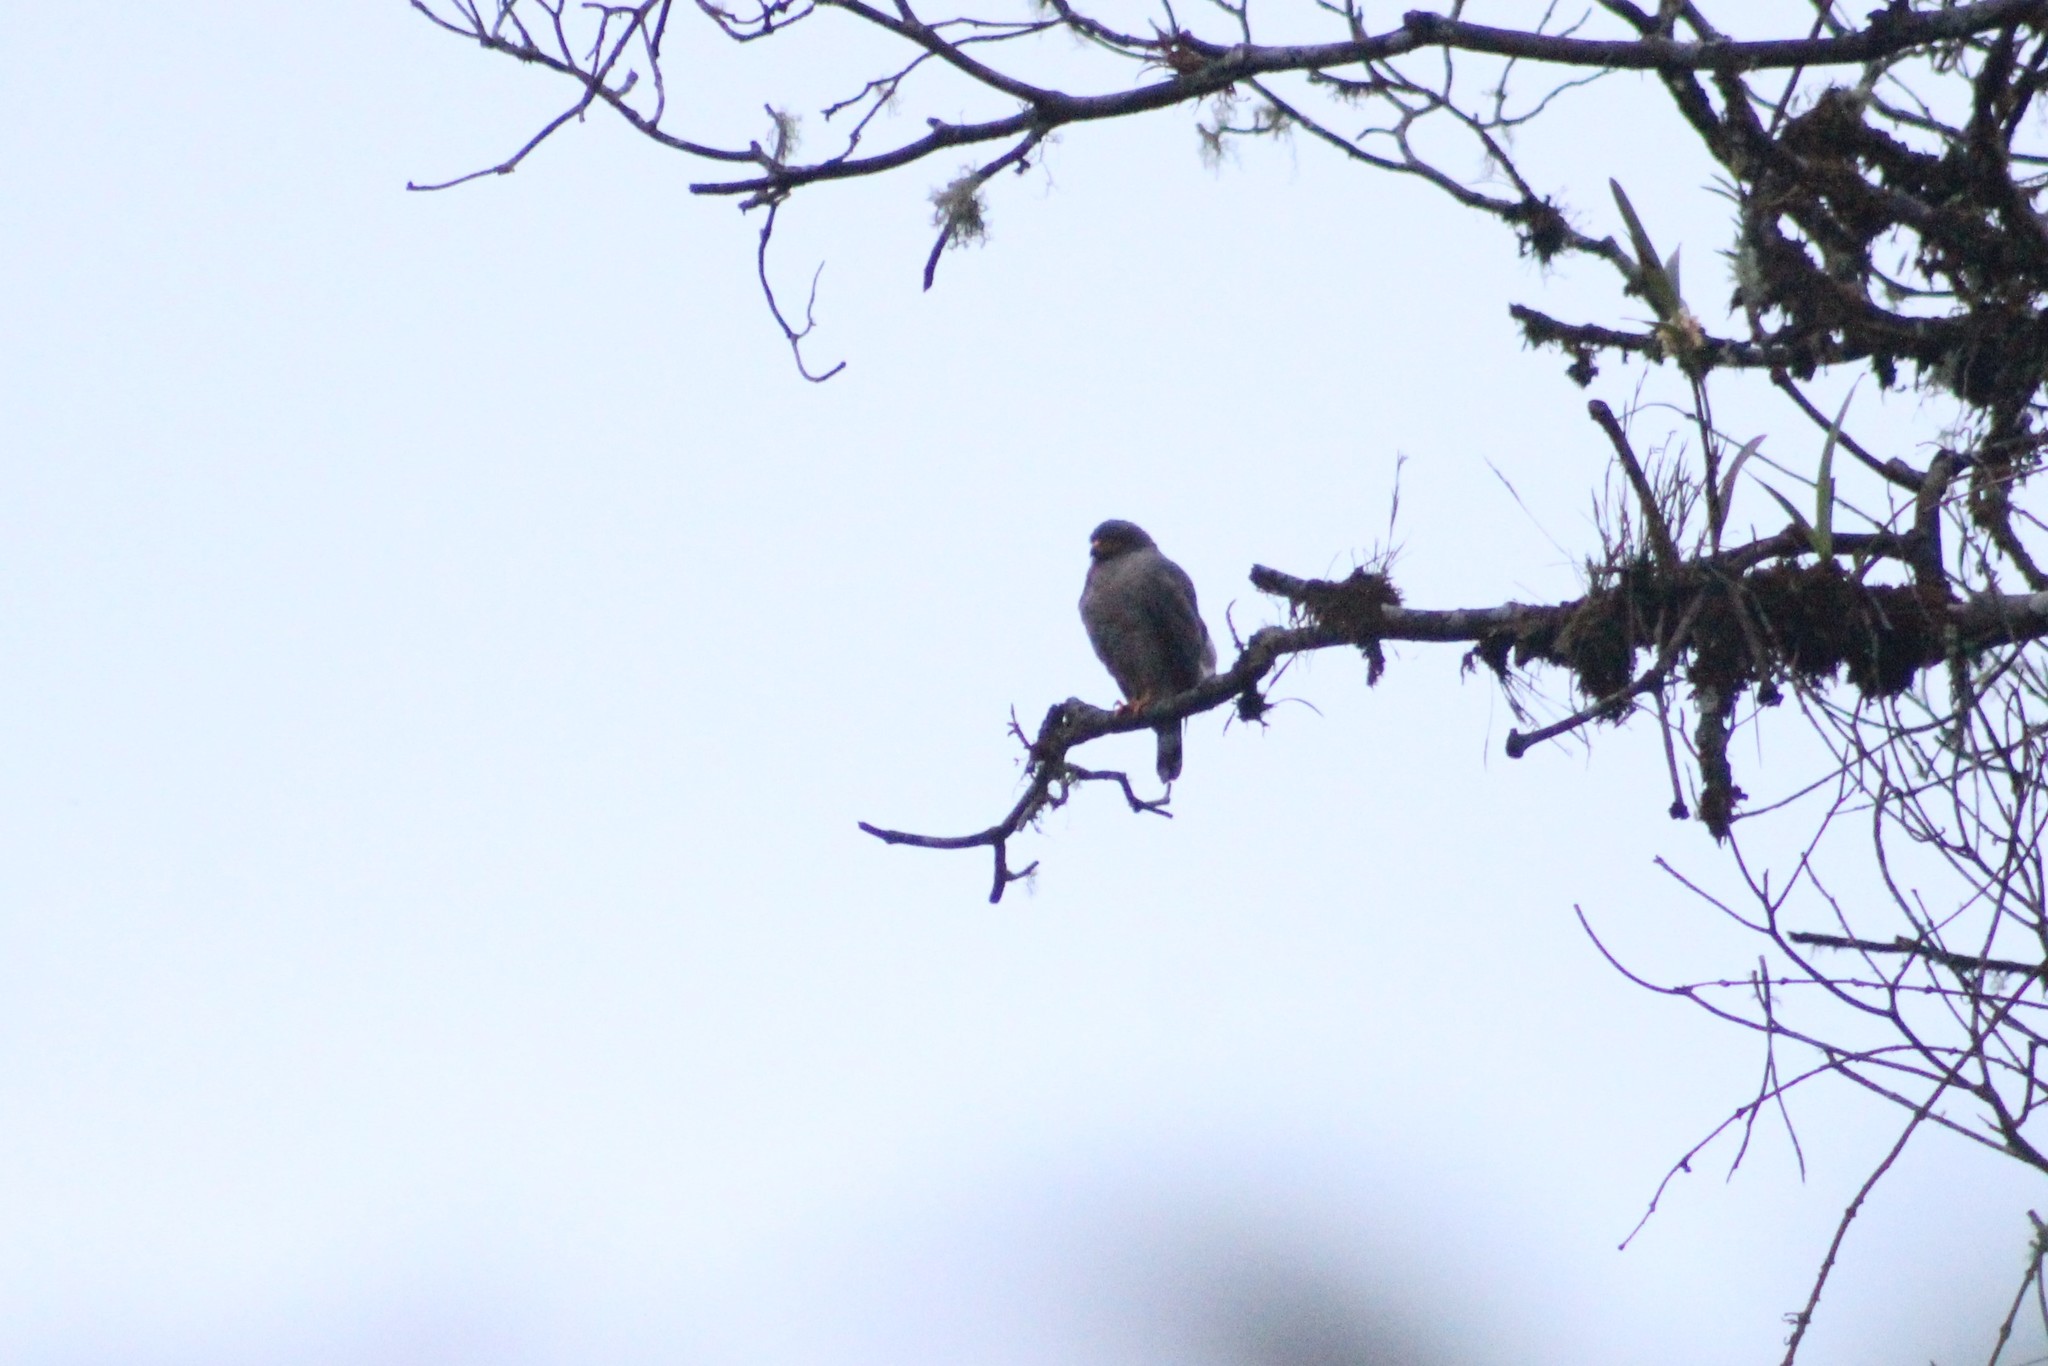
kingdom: Animalia
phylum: Chordata
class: Aves
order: Accipitriformes
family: Accipitridae
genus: Rupornis
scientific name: Rupornis magnirostris
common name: Roadside hawk
